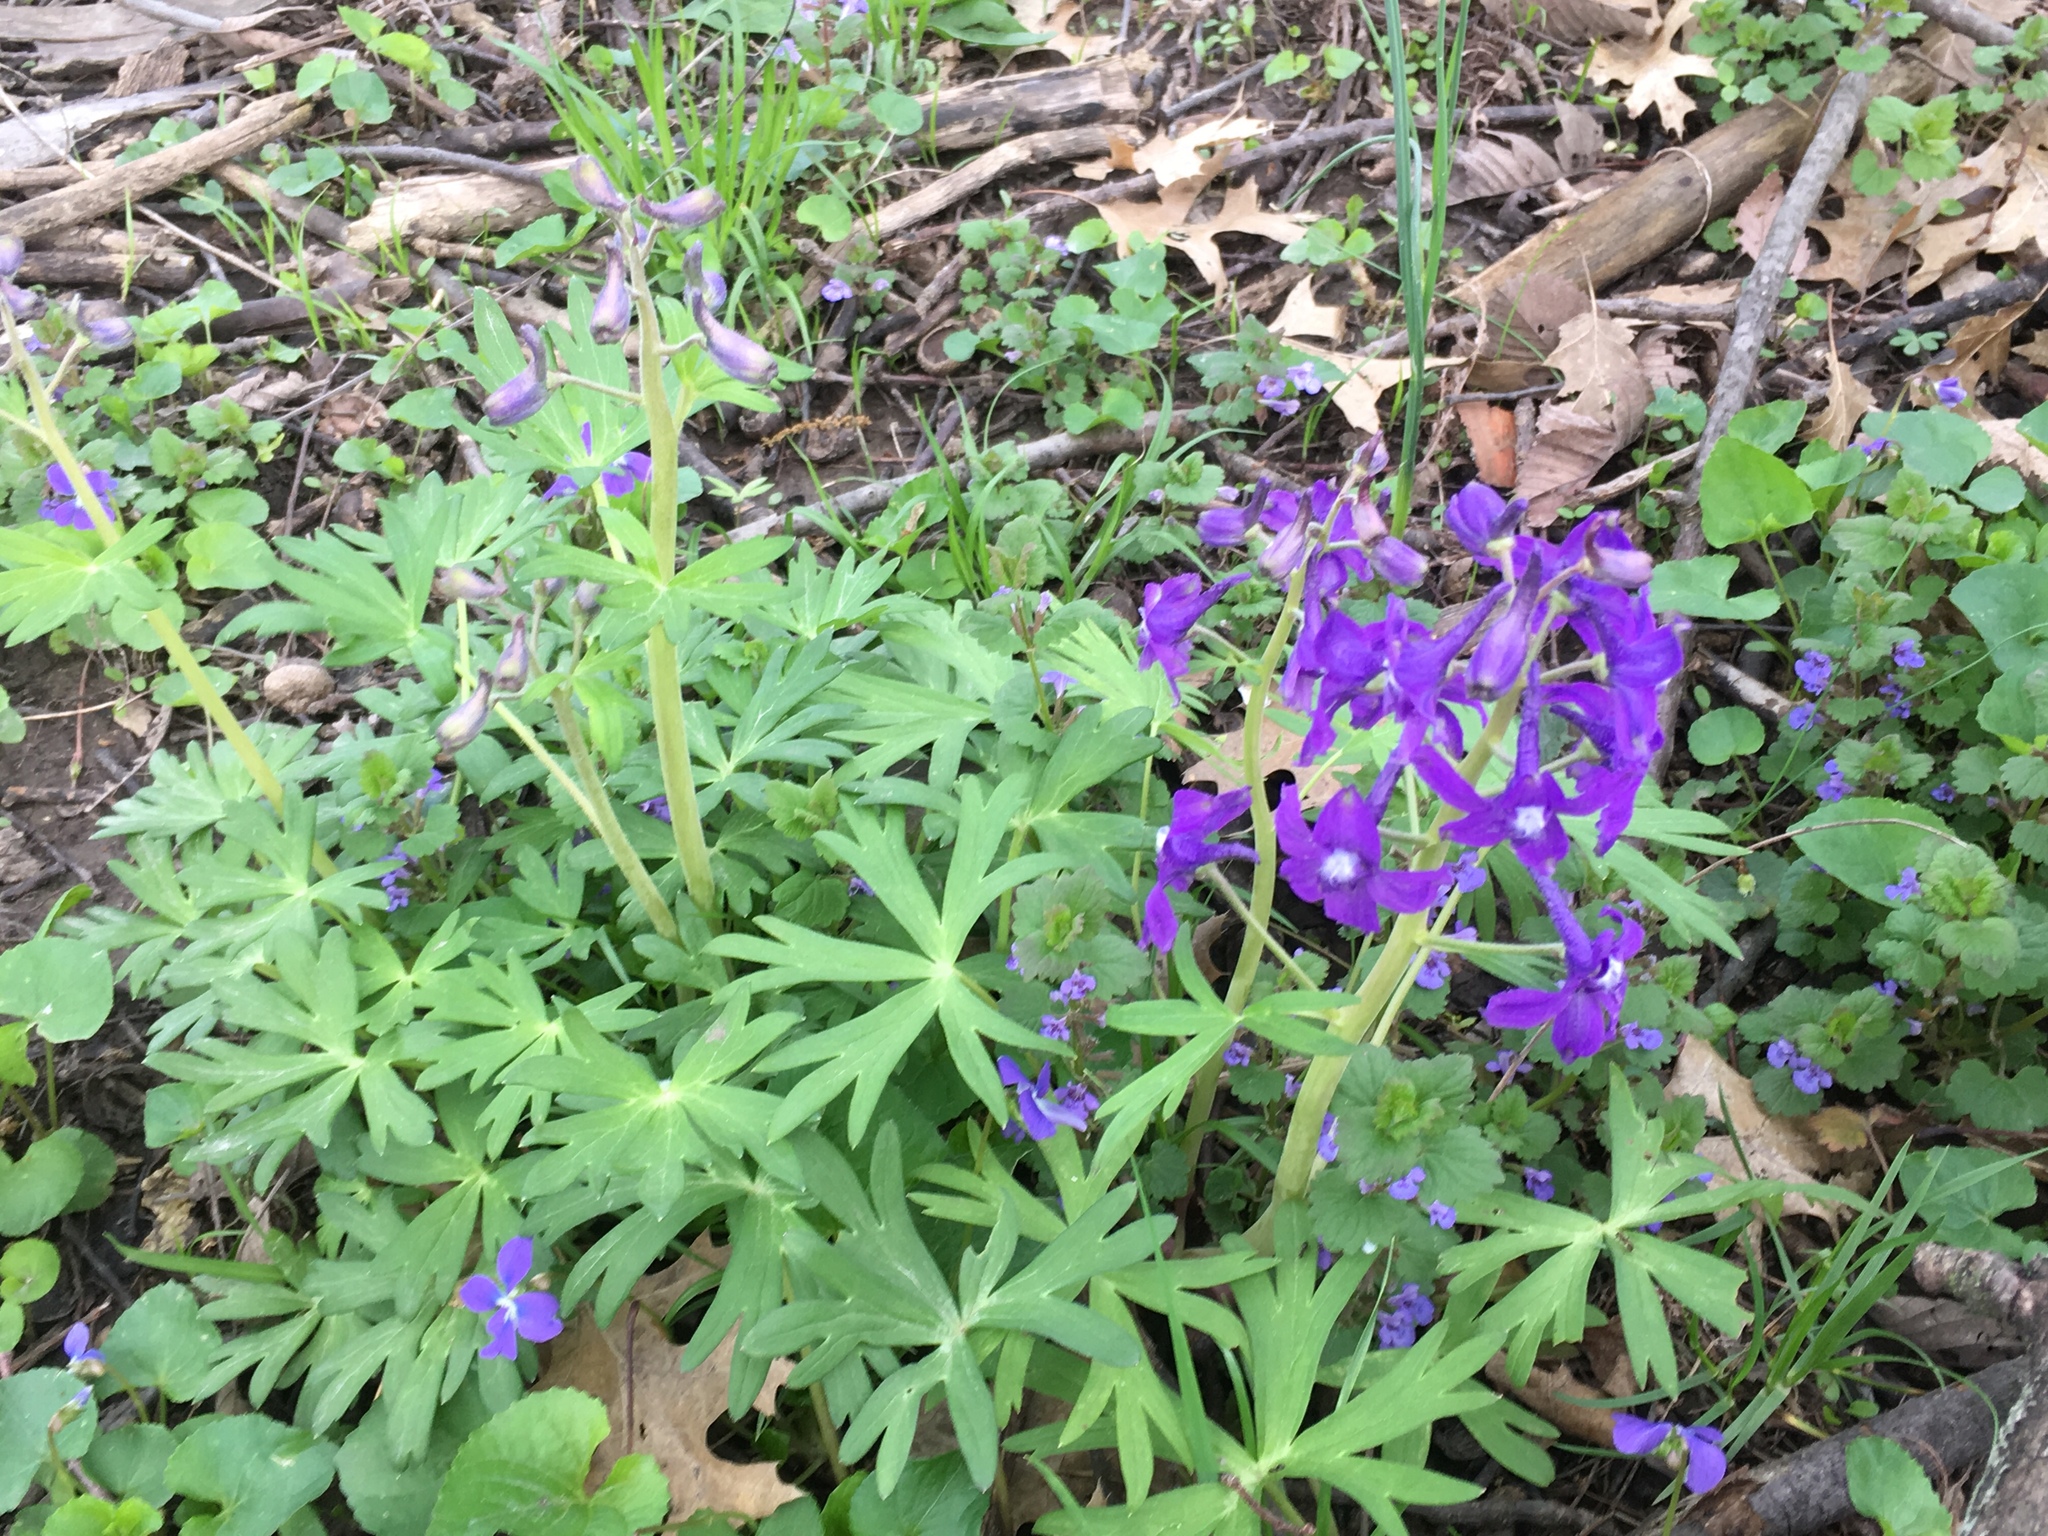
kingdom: Plantae
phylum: Tracheophyta
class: Magnoliopsida
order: Ranunculales
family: Ranunculaceae
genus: Delphinium
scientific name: Delphinium tricorne
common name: Dwarf larkspur
